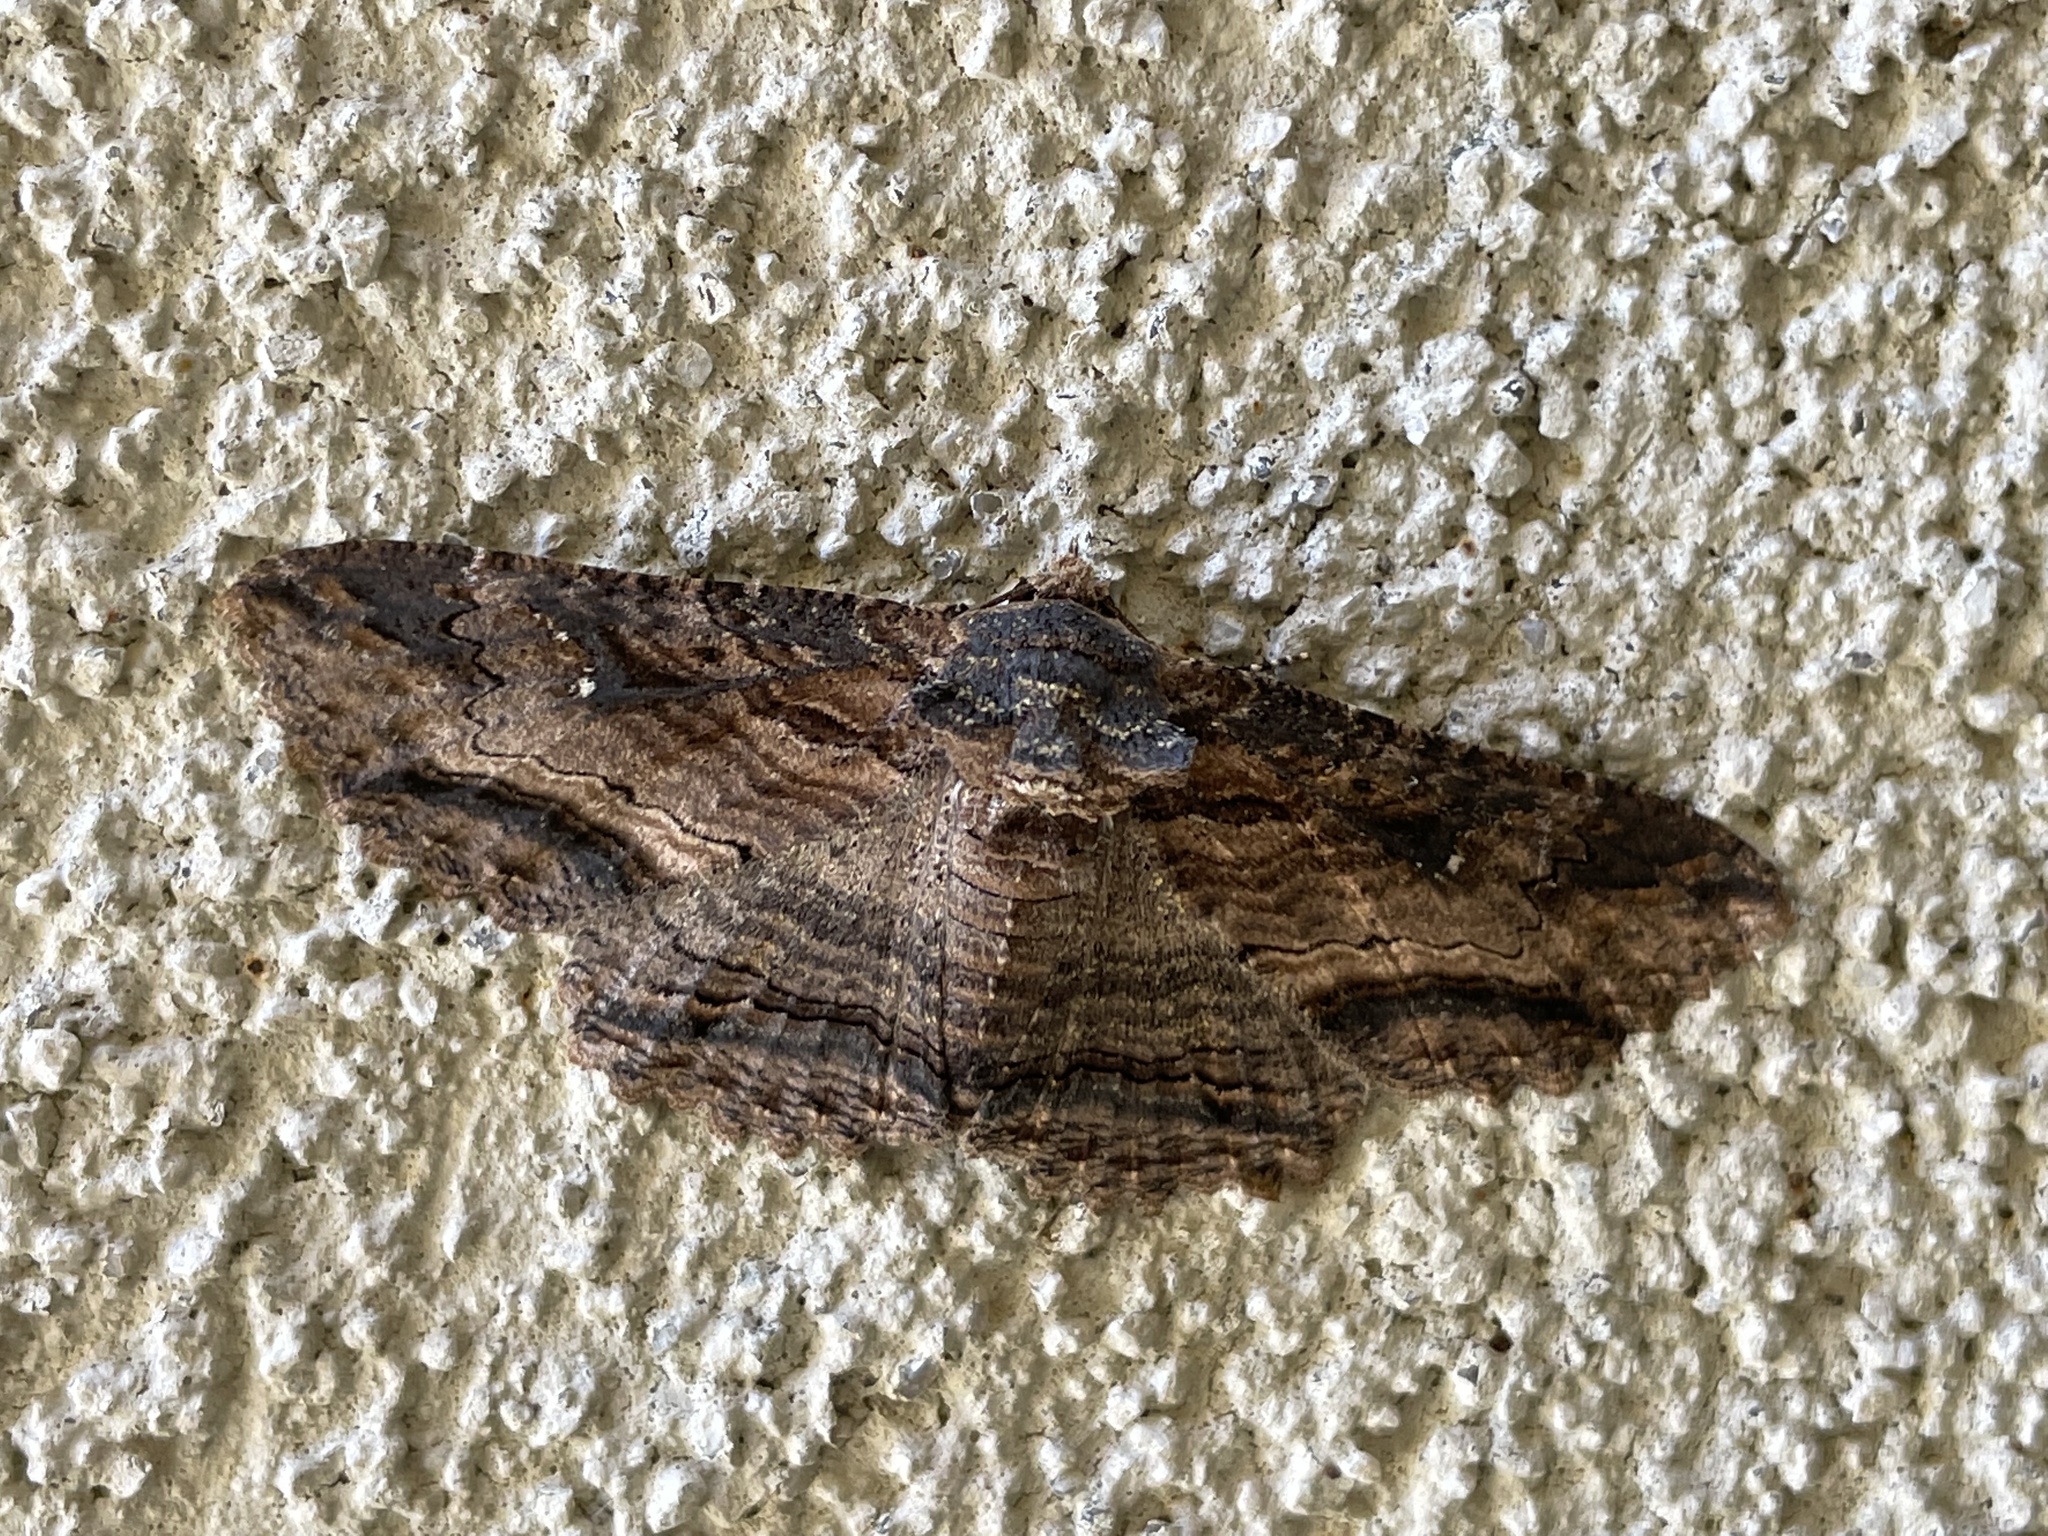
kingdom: Animalia
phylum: Arthropoda
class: Insecta
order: Lepidoptera
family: Erebidae
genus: Zale
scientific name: Zale lunata
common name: Lunate zale moth
